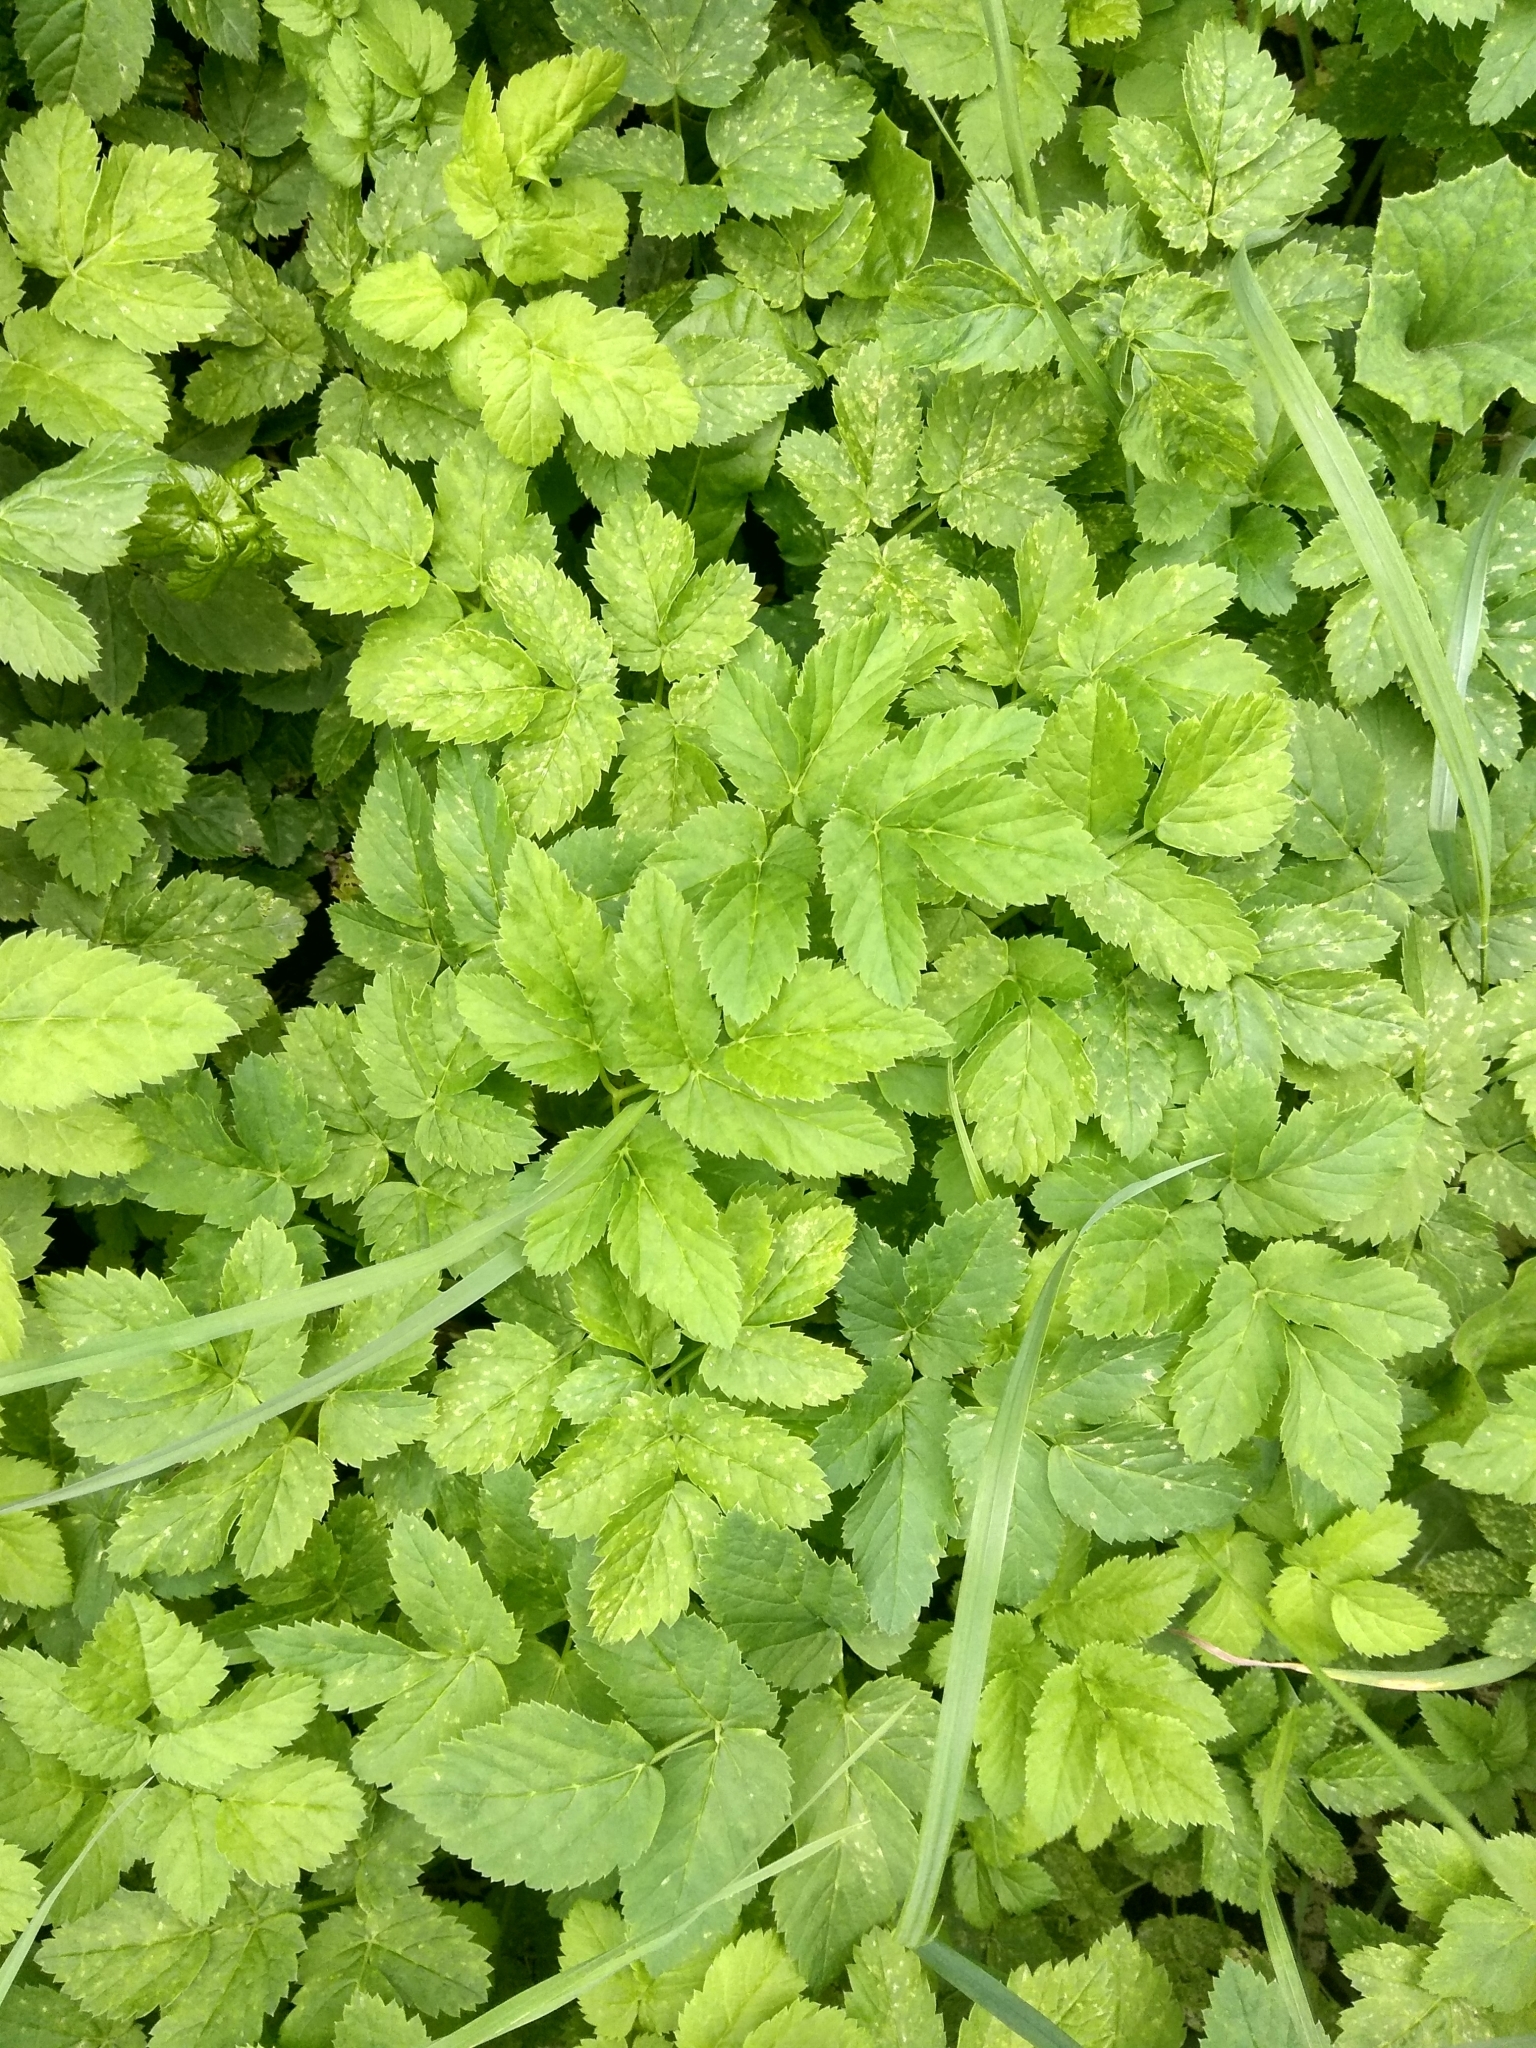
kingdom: Plantae
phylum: Tracheophyta
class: Magnoliopsida
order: Apiales
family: Apiaceae
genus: Aegopodium
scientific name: Aegopodium podagraria
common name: Ground-elder
